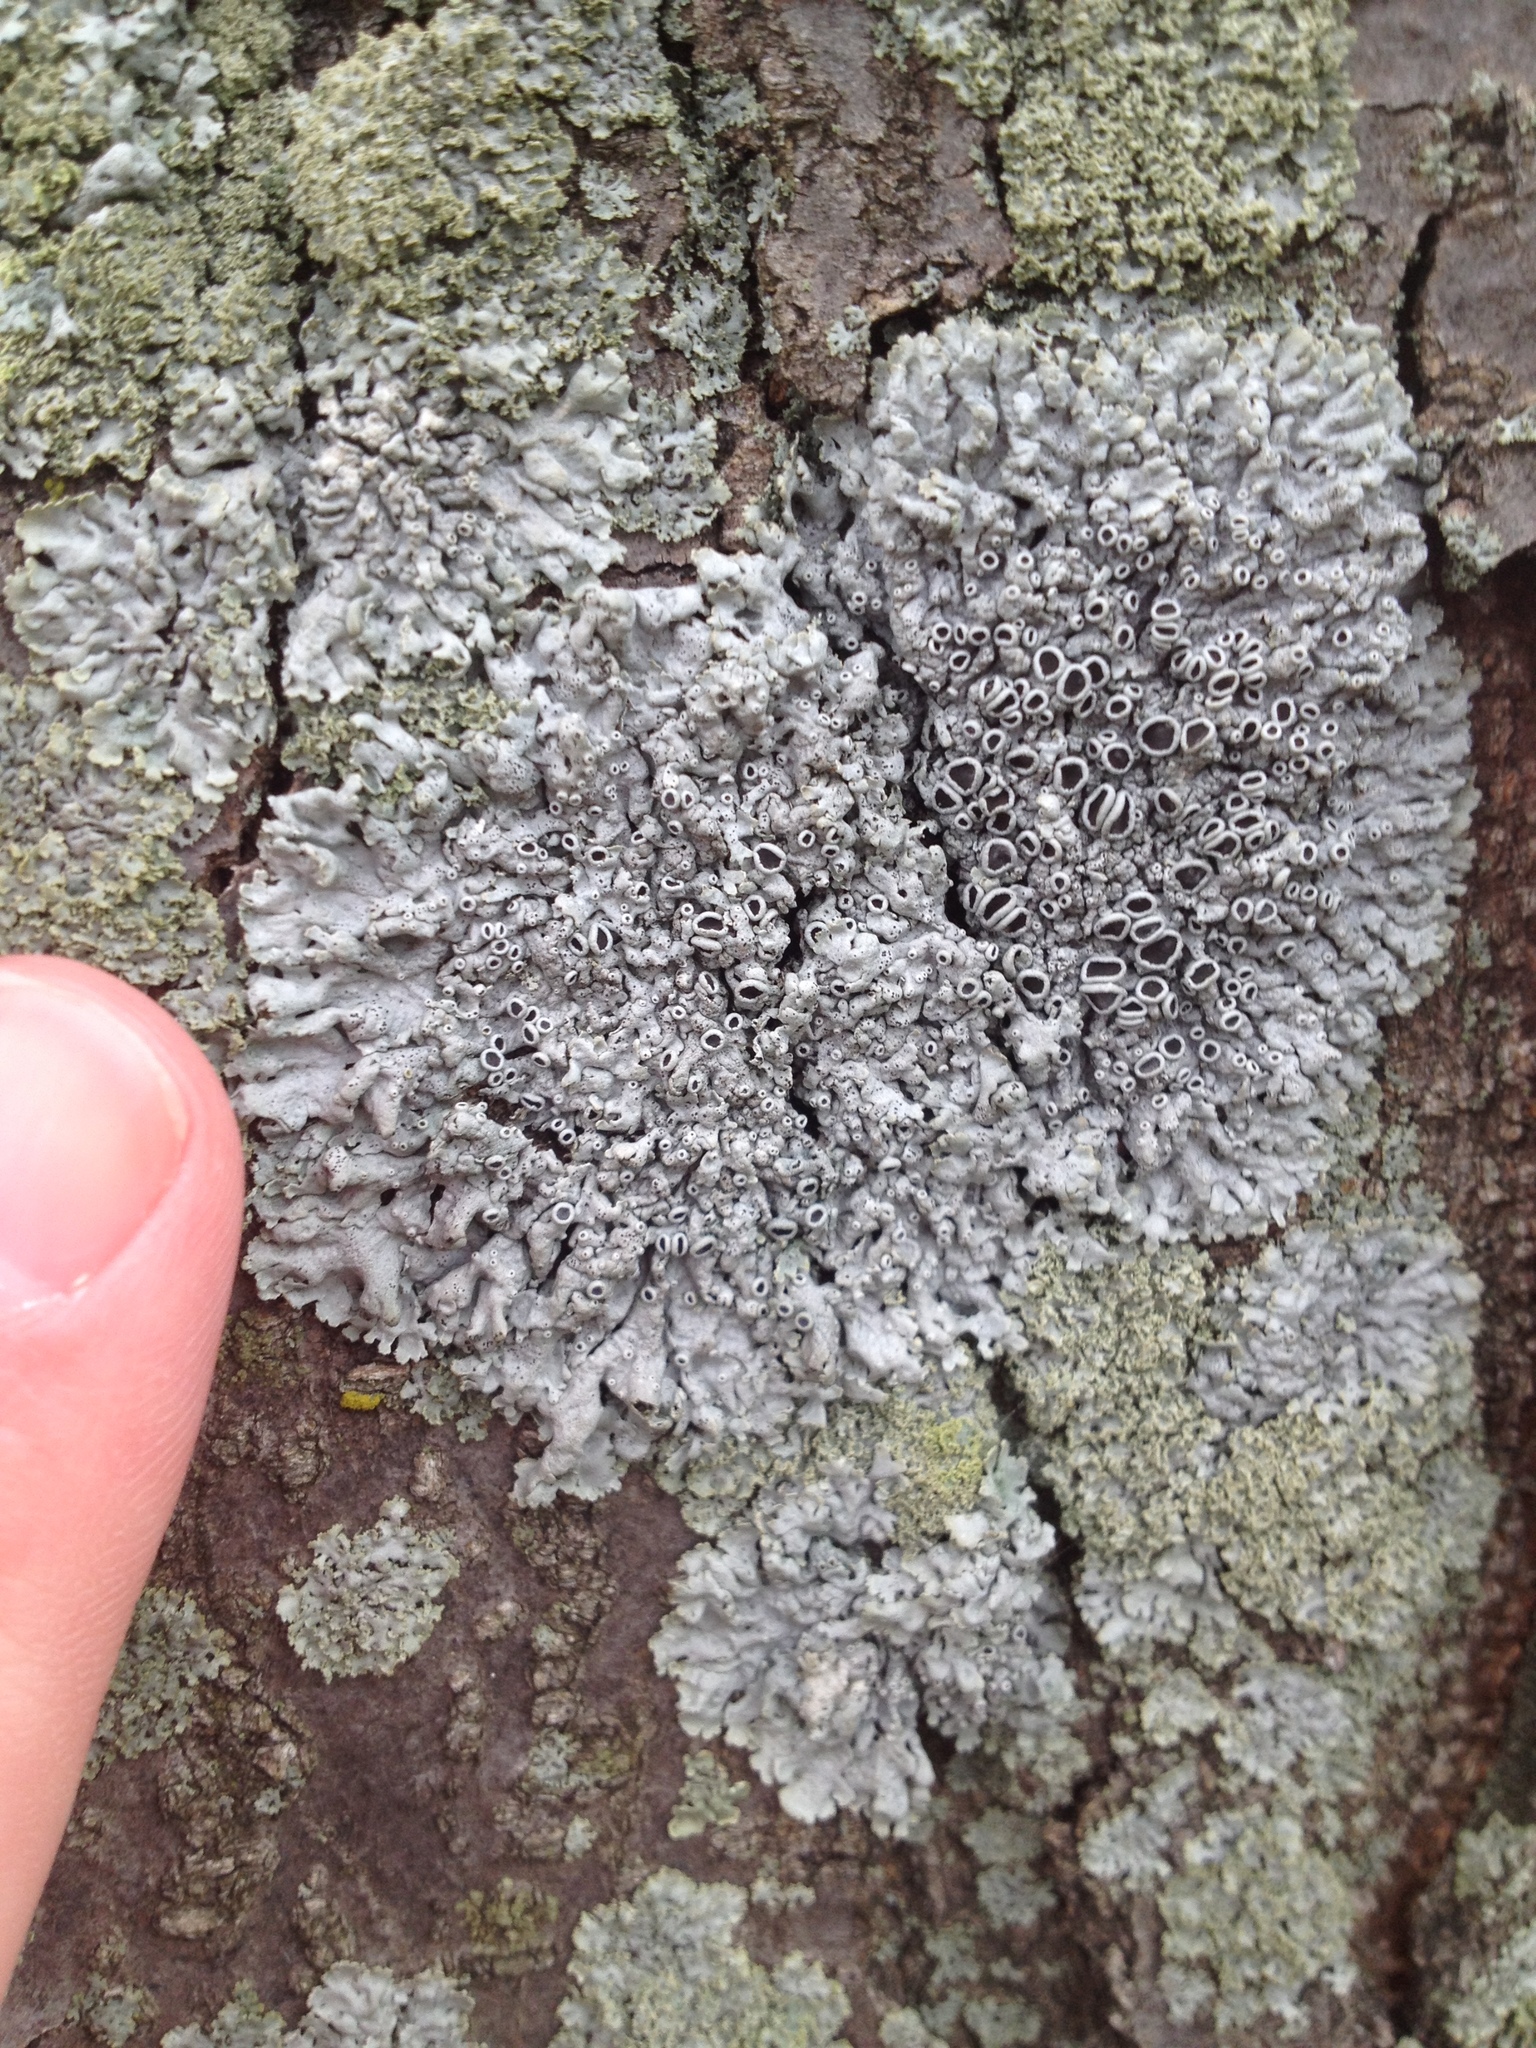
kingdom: Fungi
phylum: Ascomycota
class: Lecanoromycetes
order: Caliciales
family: Physciaceae
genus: Physcia
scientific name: Physcia stellaris
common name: Star rosette lichen
